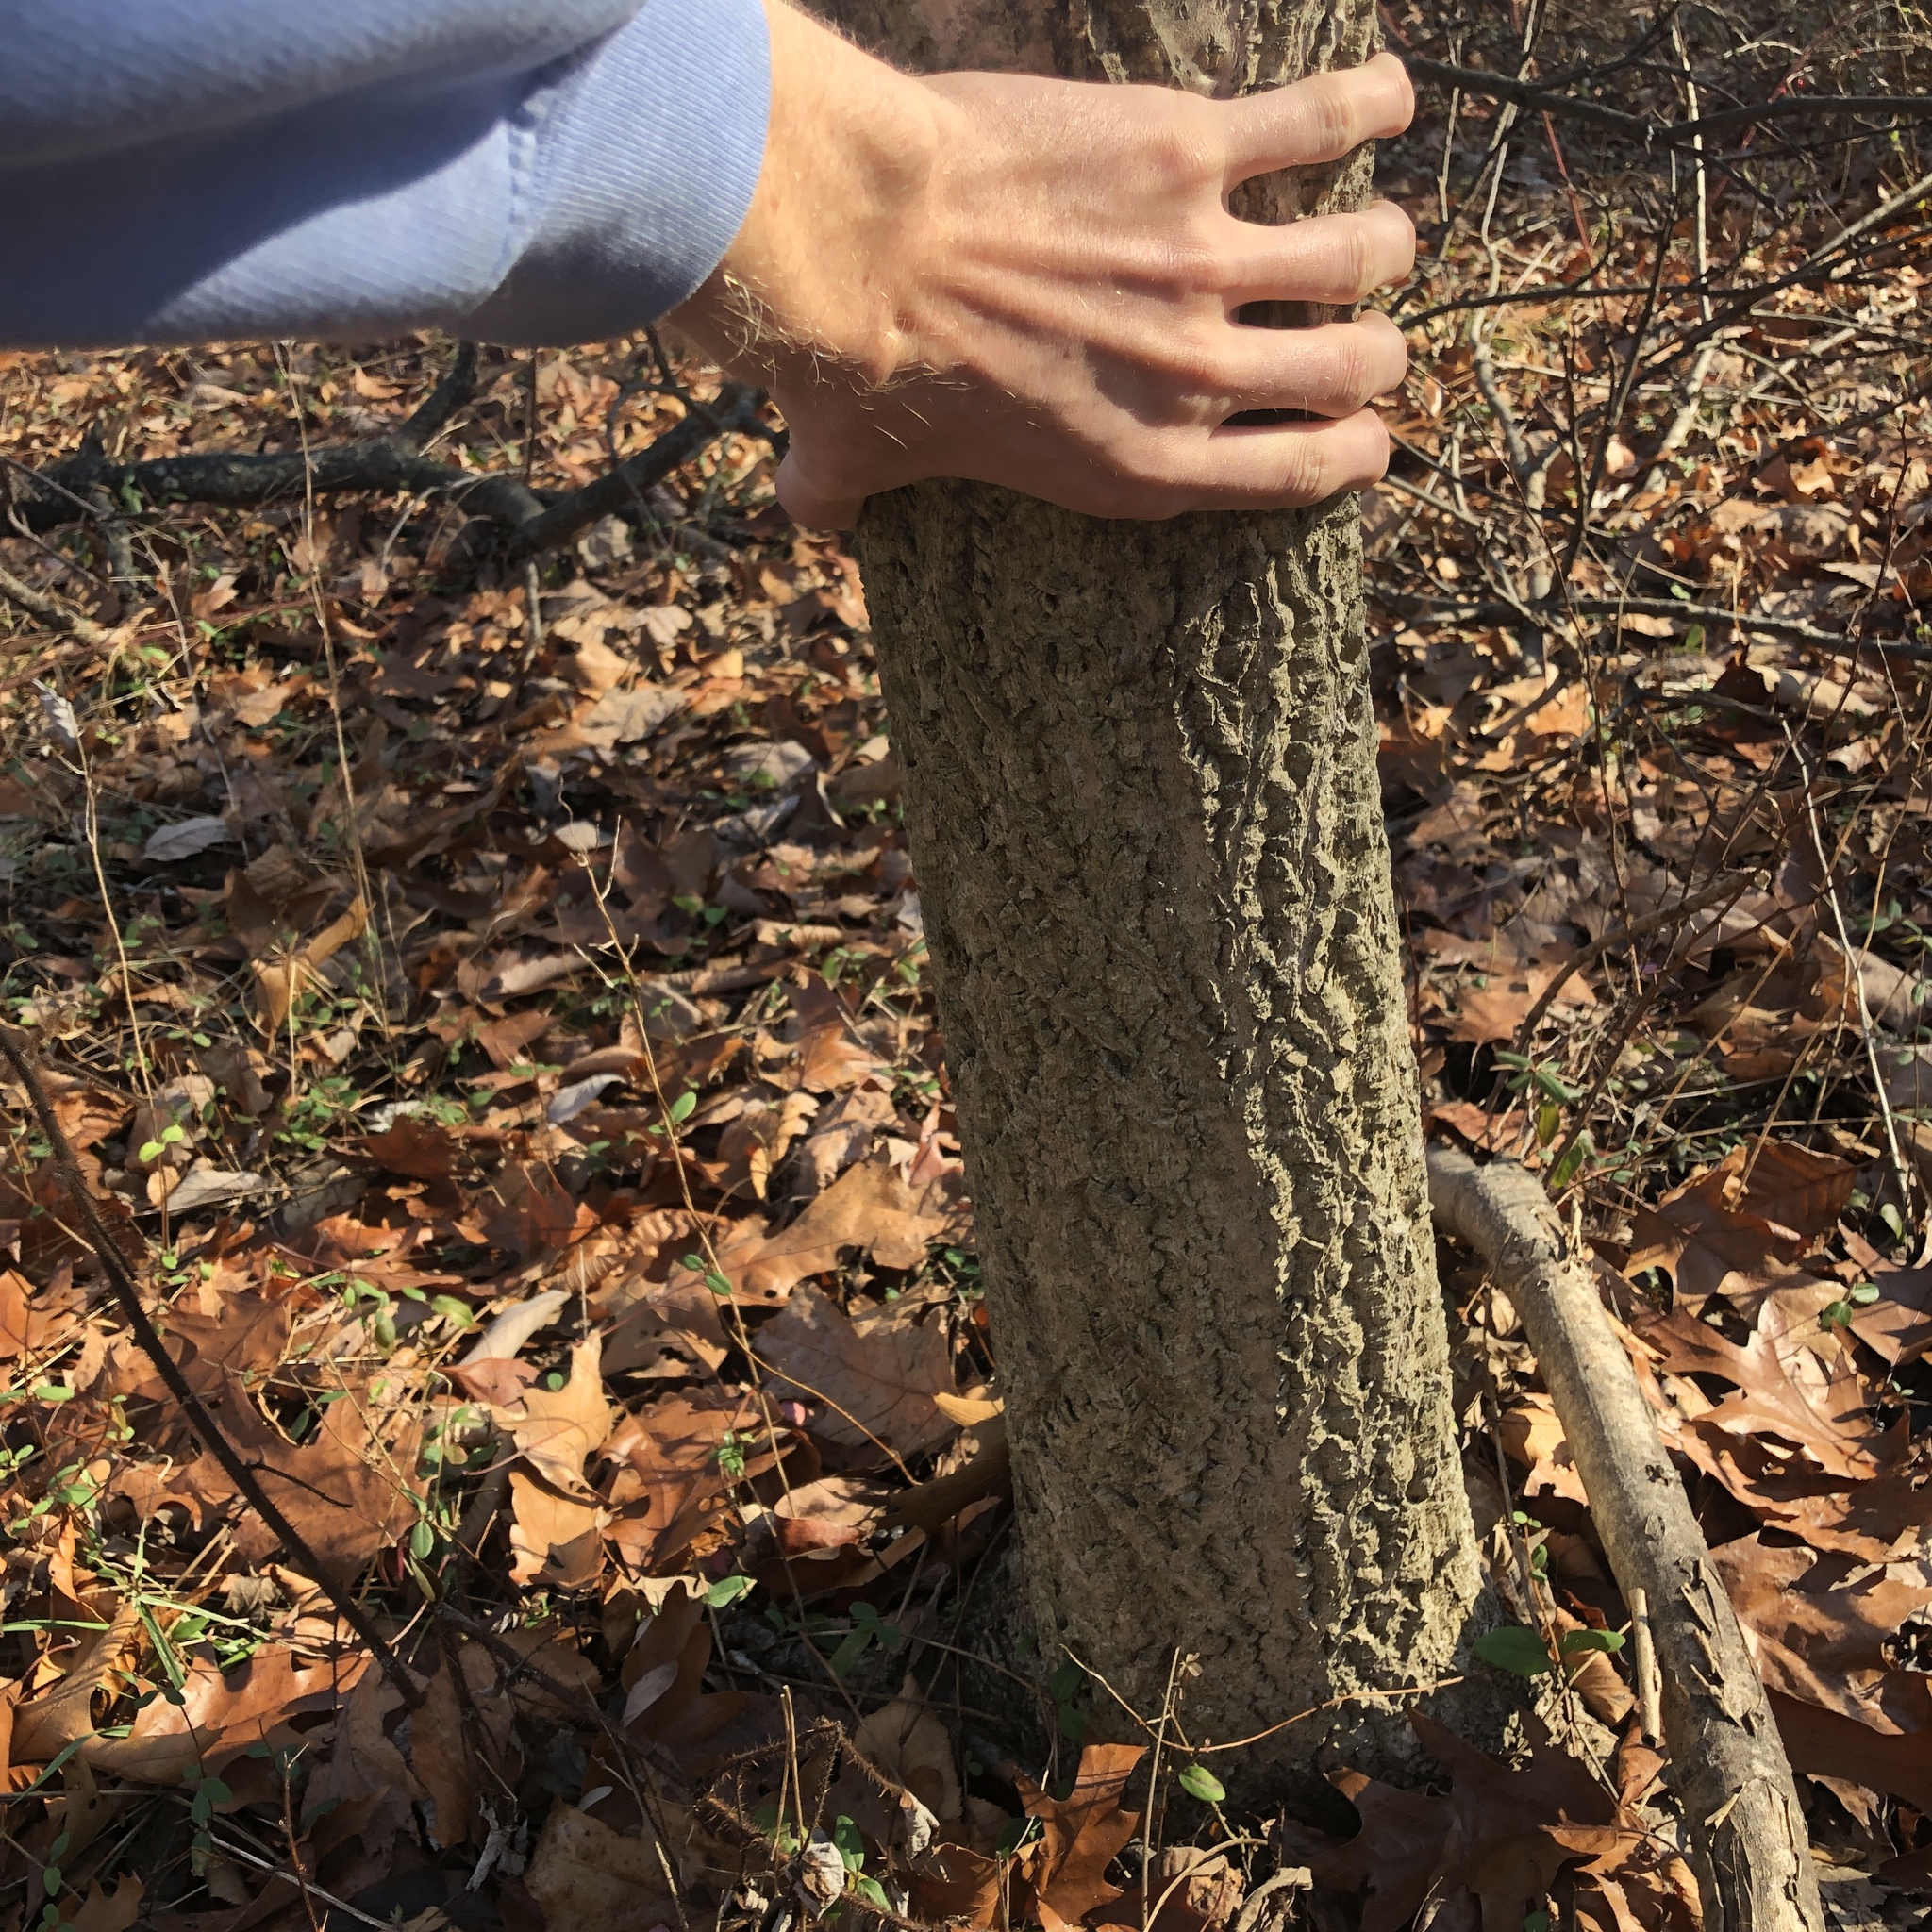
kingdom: Plantae
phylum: Tracheophyta
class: Magnoliopsida
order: Sapindales
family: Rutaceae
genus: Phellodendron
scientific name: Phellodendron amurense
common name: Amur corktree
